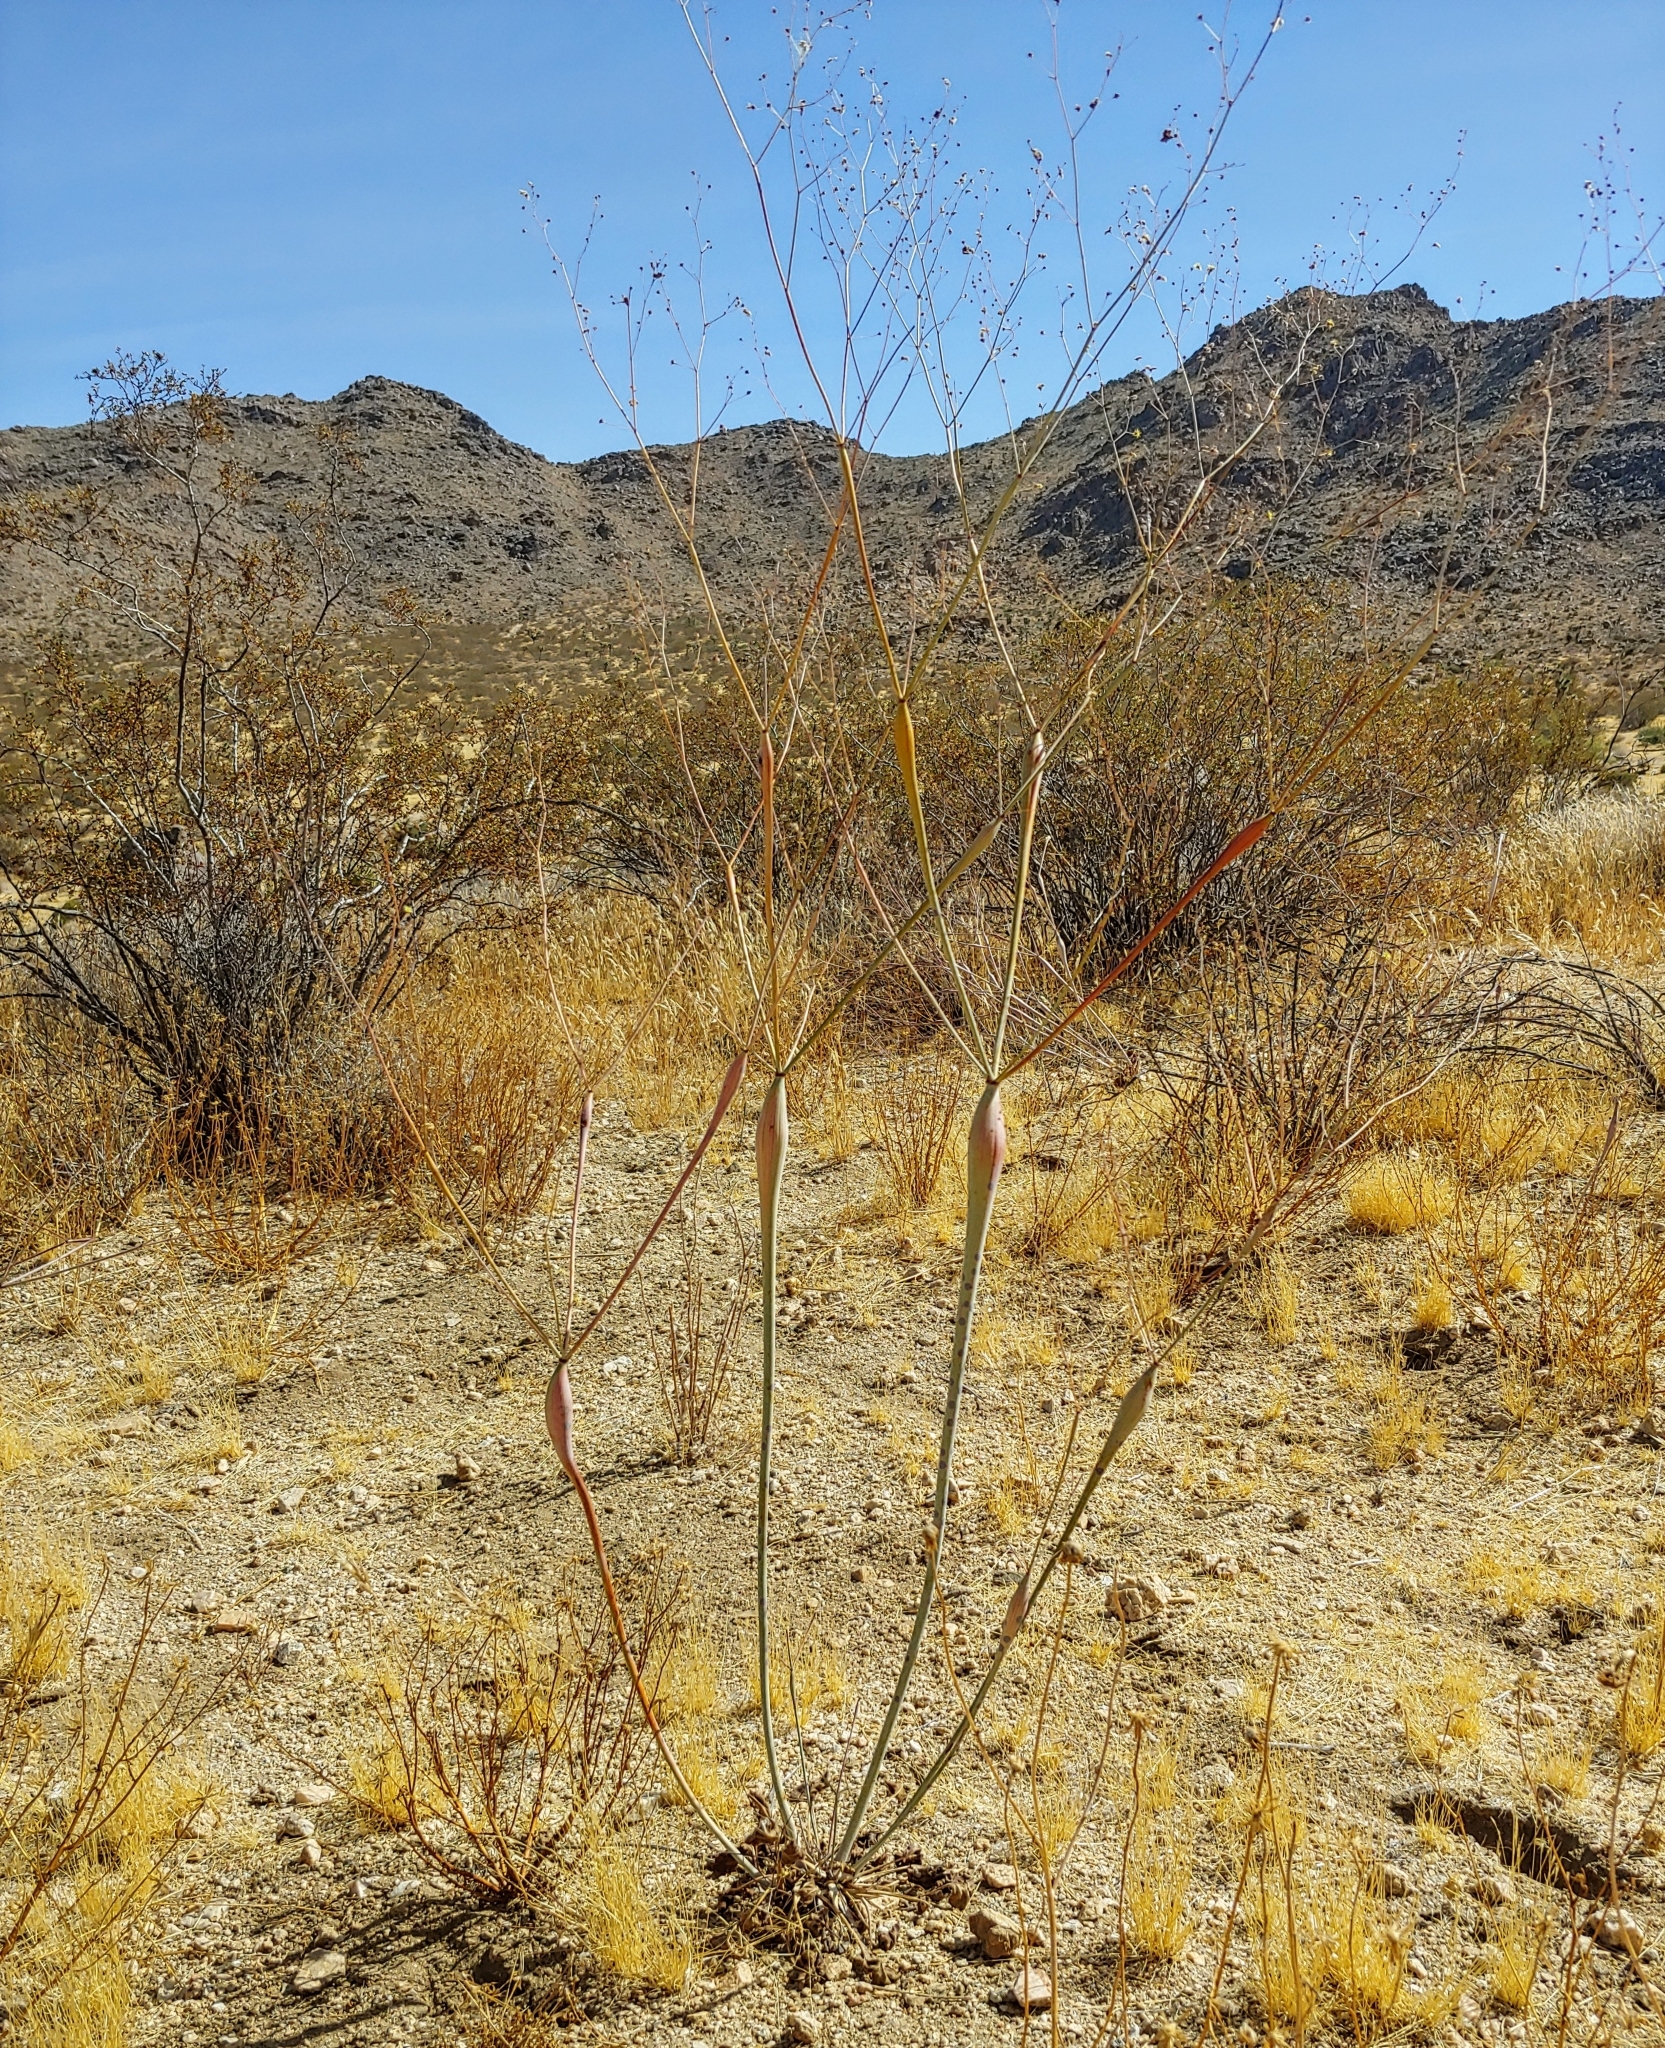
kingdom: Plantae
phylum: Tracheophyta
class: Magnoliopsida
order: Caryophyllales
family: Polygonaceae
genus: Eriogonum
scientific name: Eriogonum inflatum
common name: Desert trumpet
